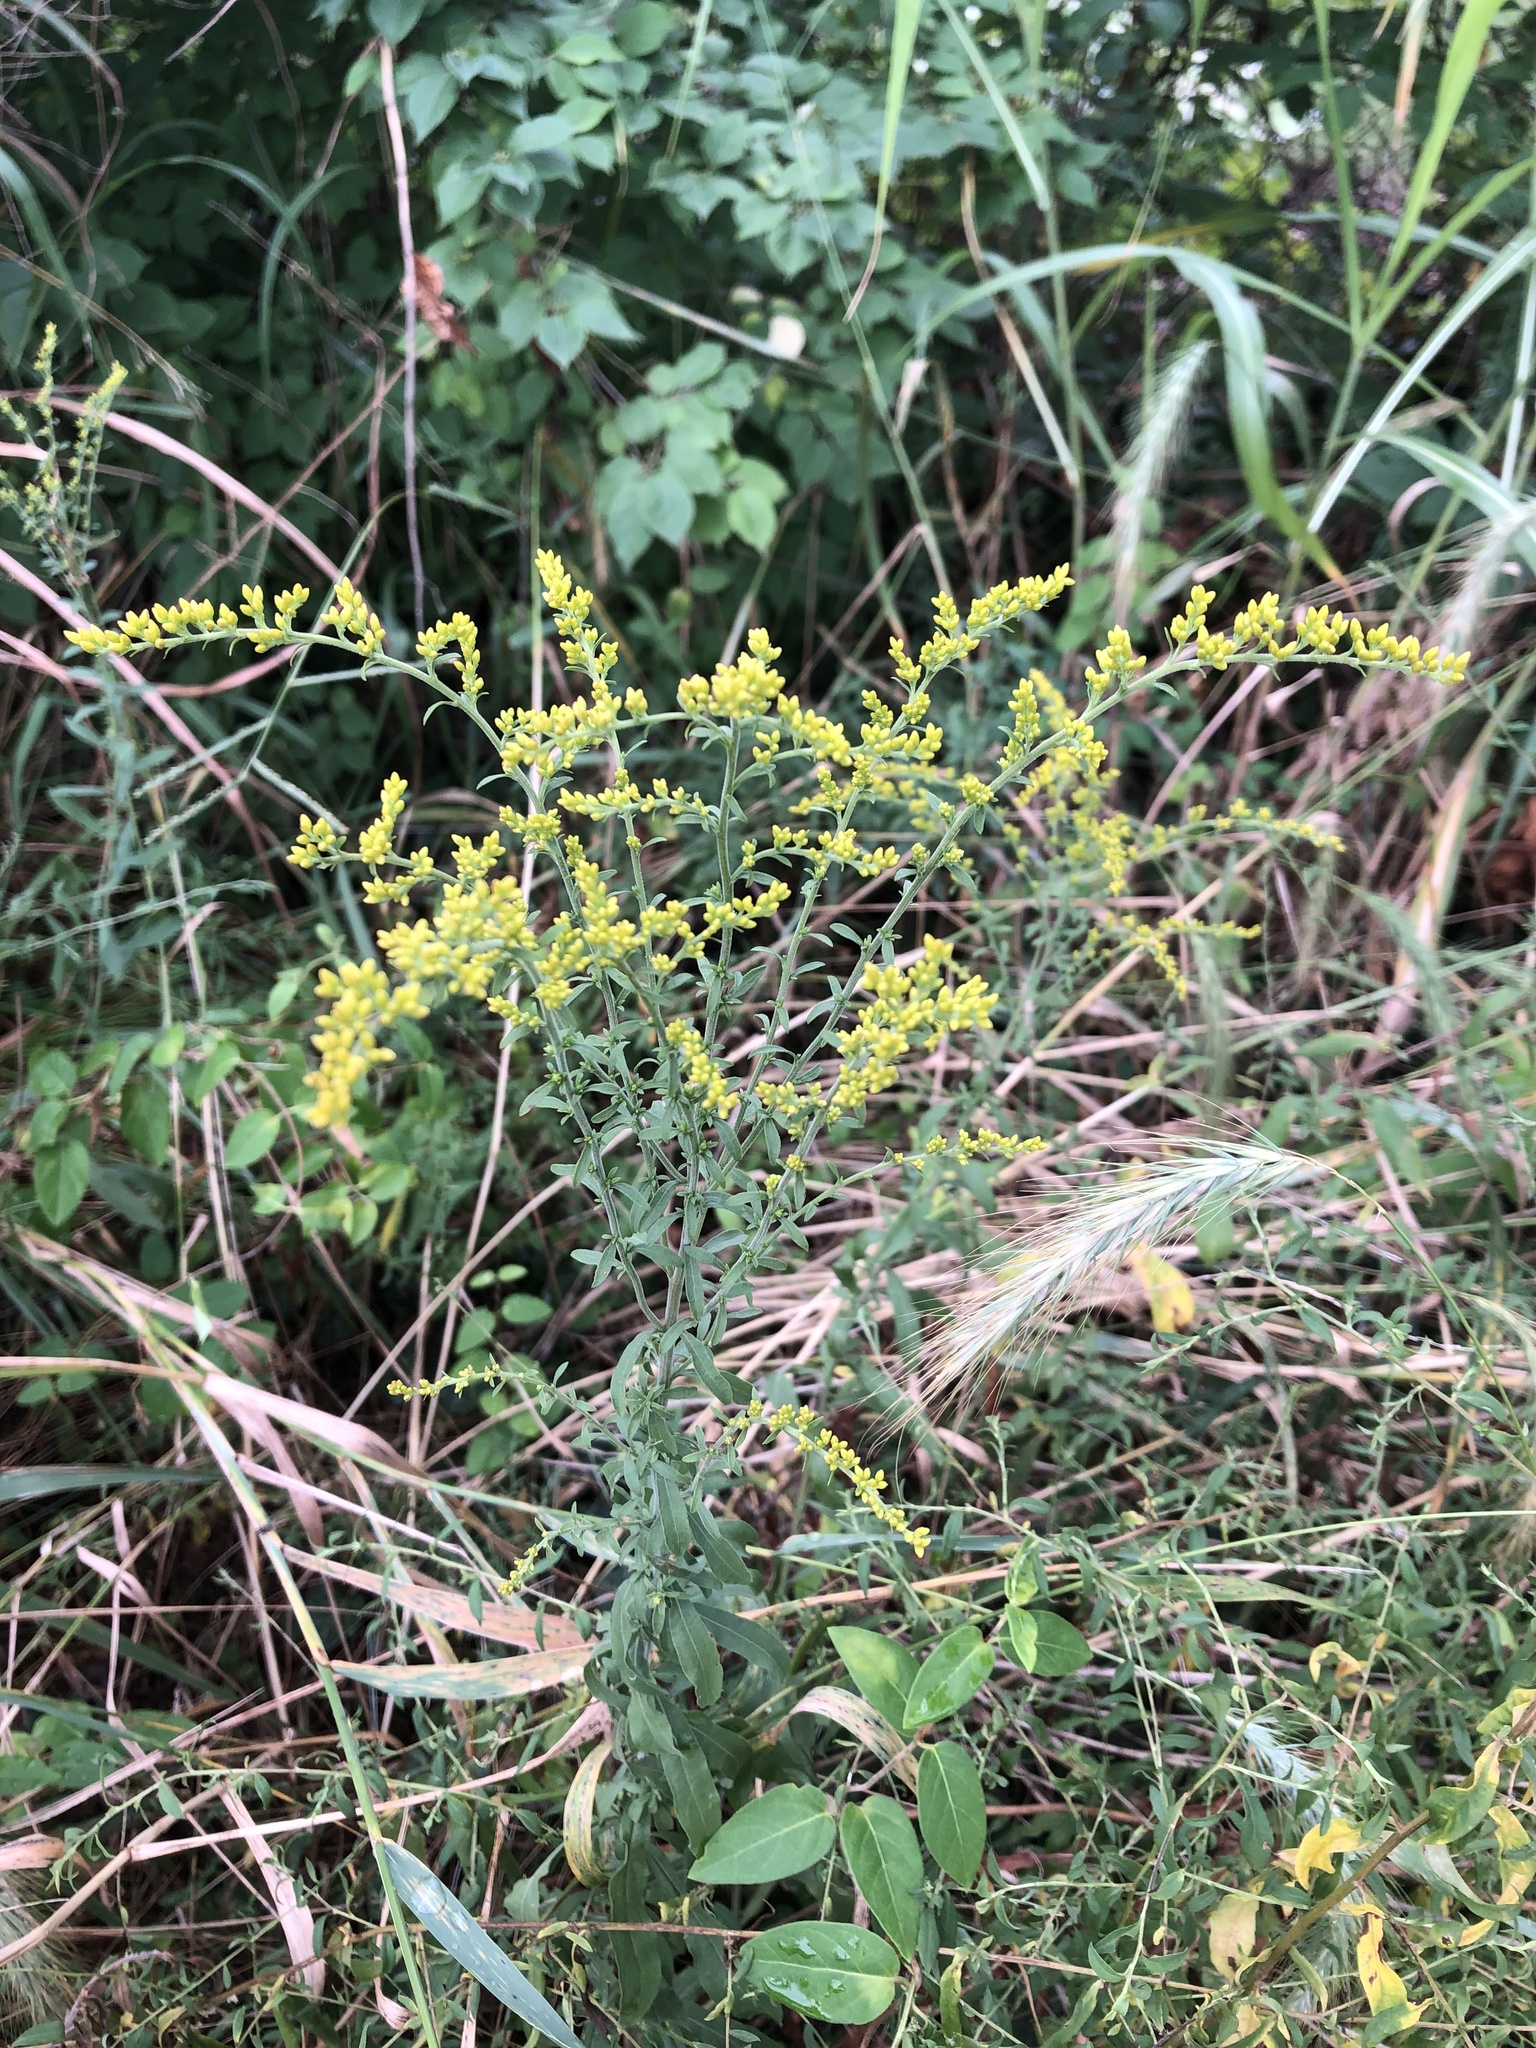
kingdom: Plantae
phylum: Tracheophyta
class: Magnoliopsida
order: Asterales
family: Asteraceae
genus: Solidago
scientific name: Solidago nemoralis
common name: Grey goldenrod
